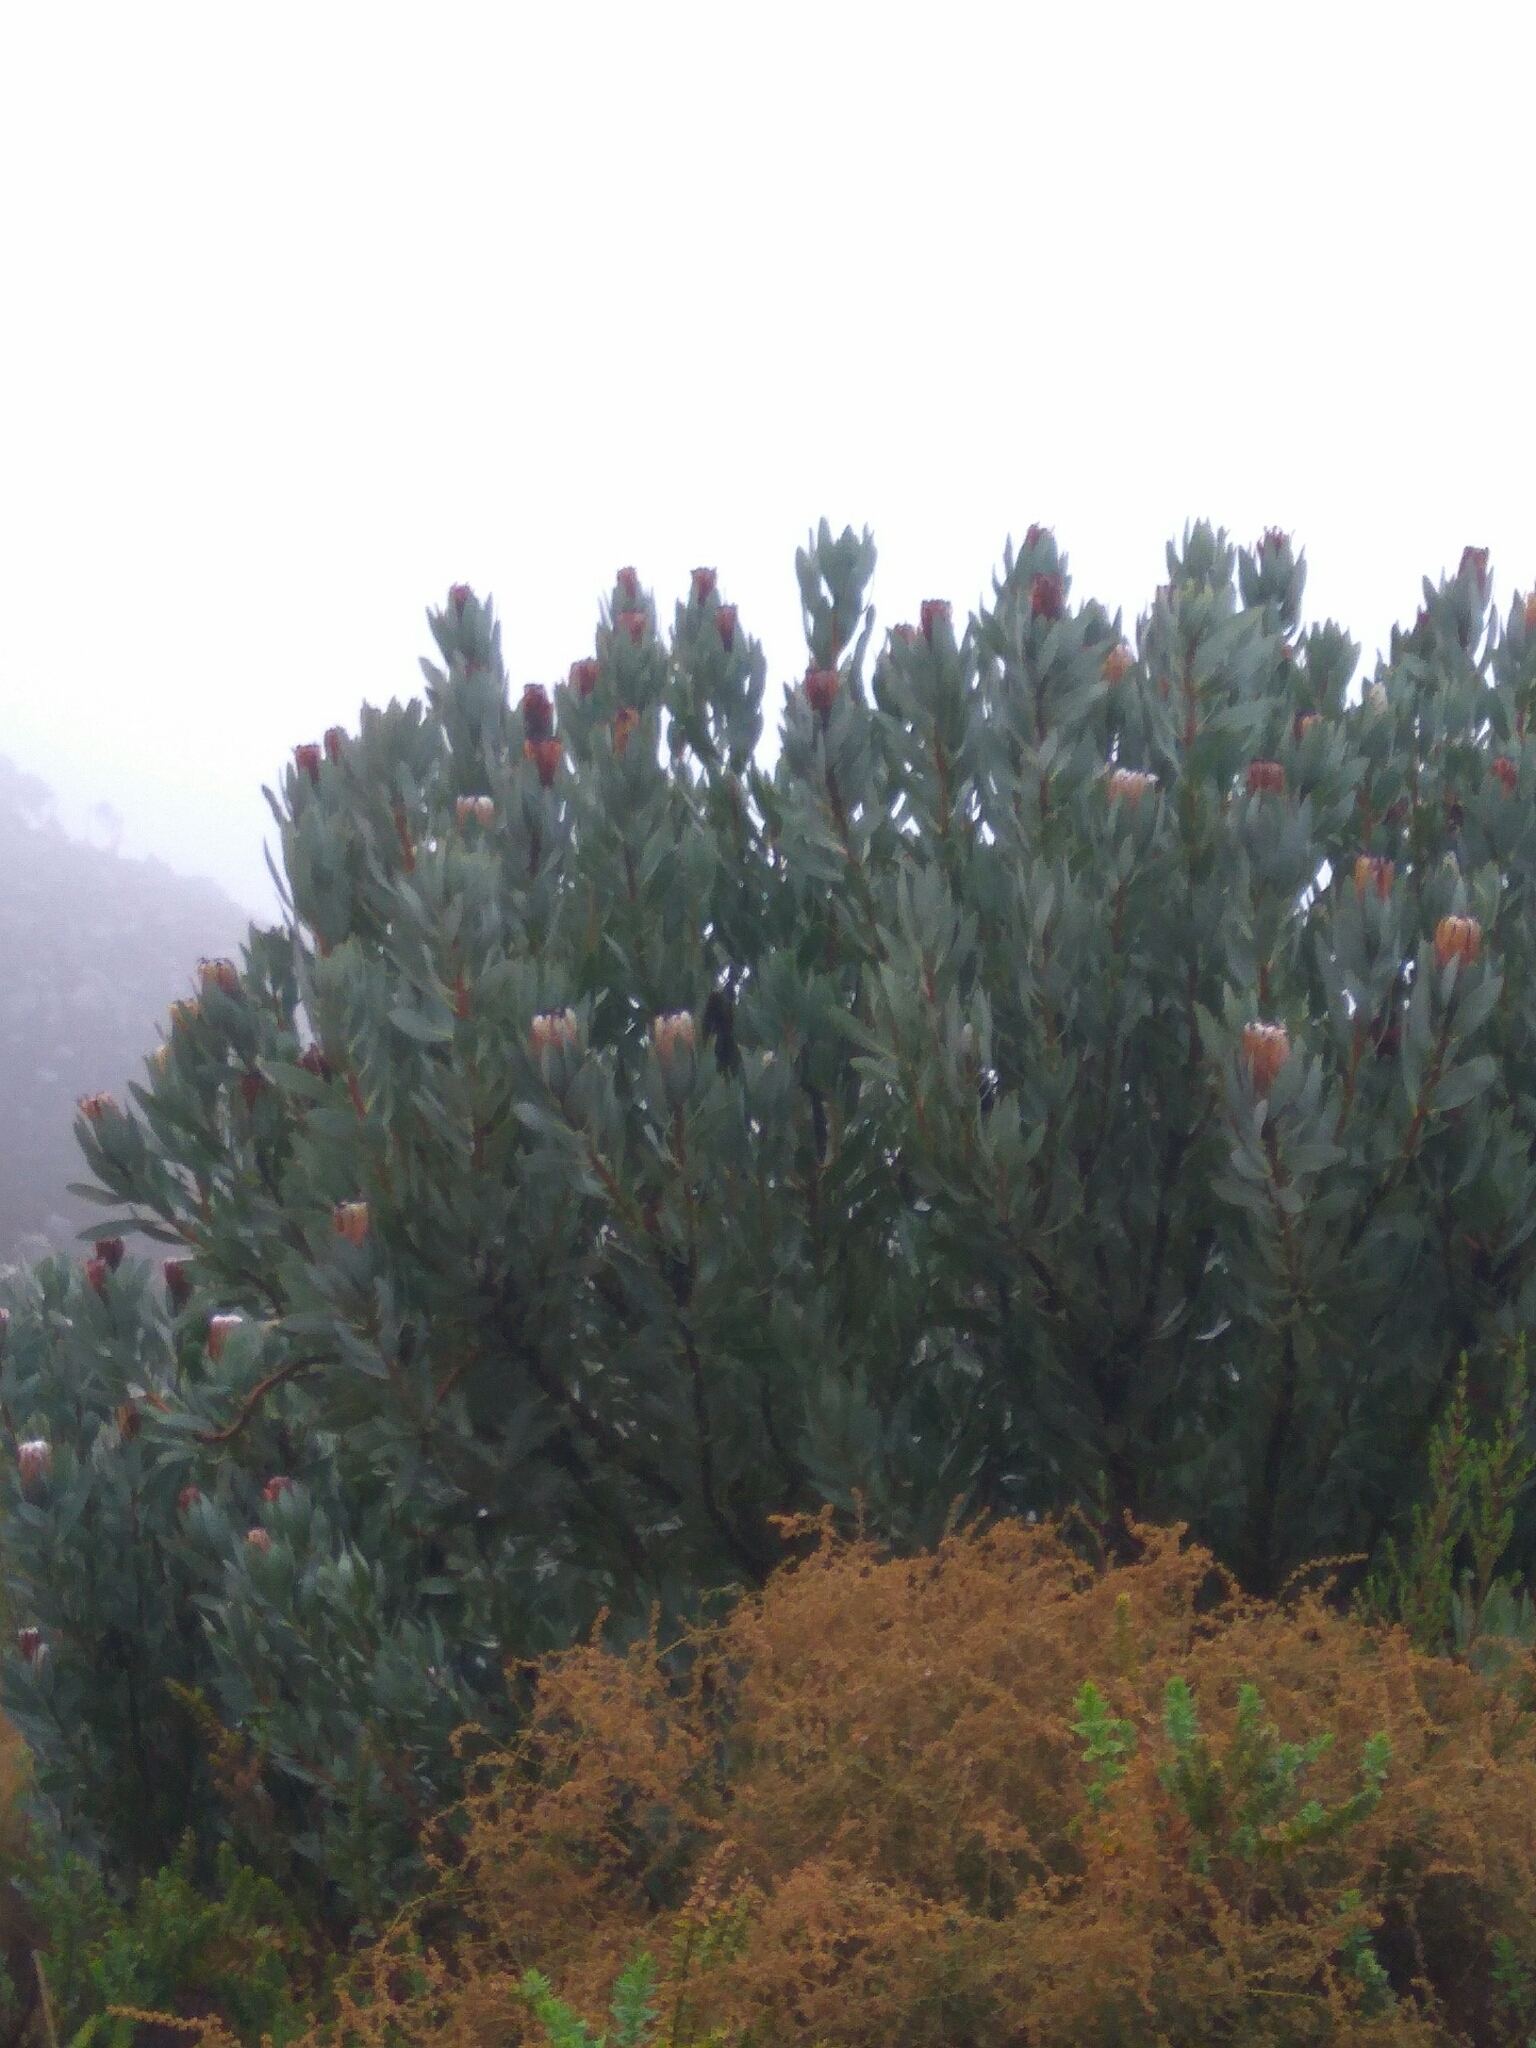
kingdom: Plantae
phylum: Tracheophyta
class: Magnoliopsida
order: Proteales
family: Proteaceae
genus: Protea
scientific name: Protea laurifolia
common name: Grey-leaf sugarbsh
